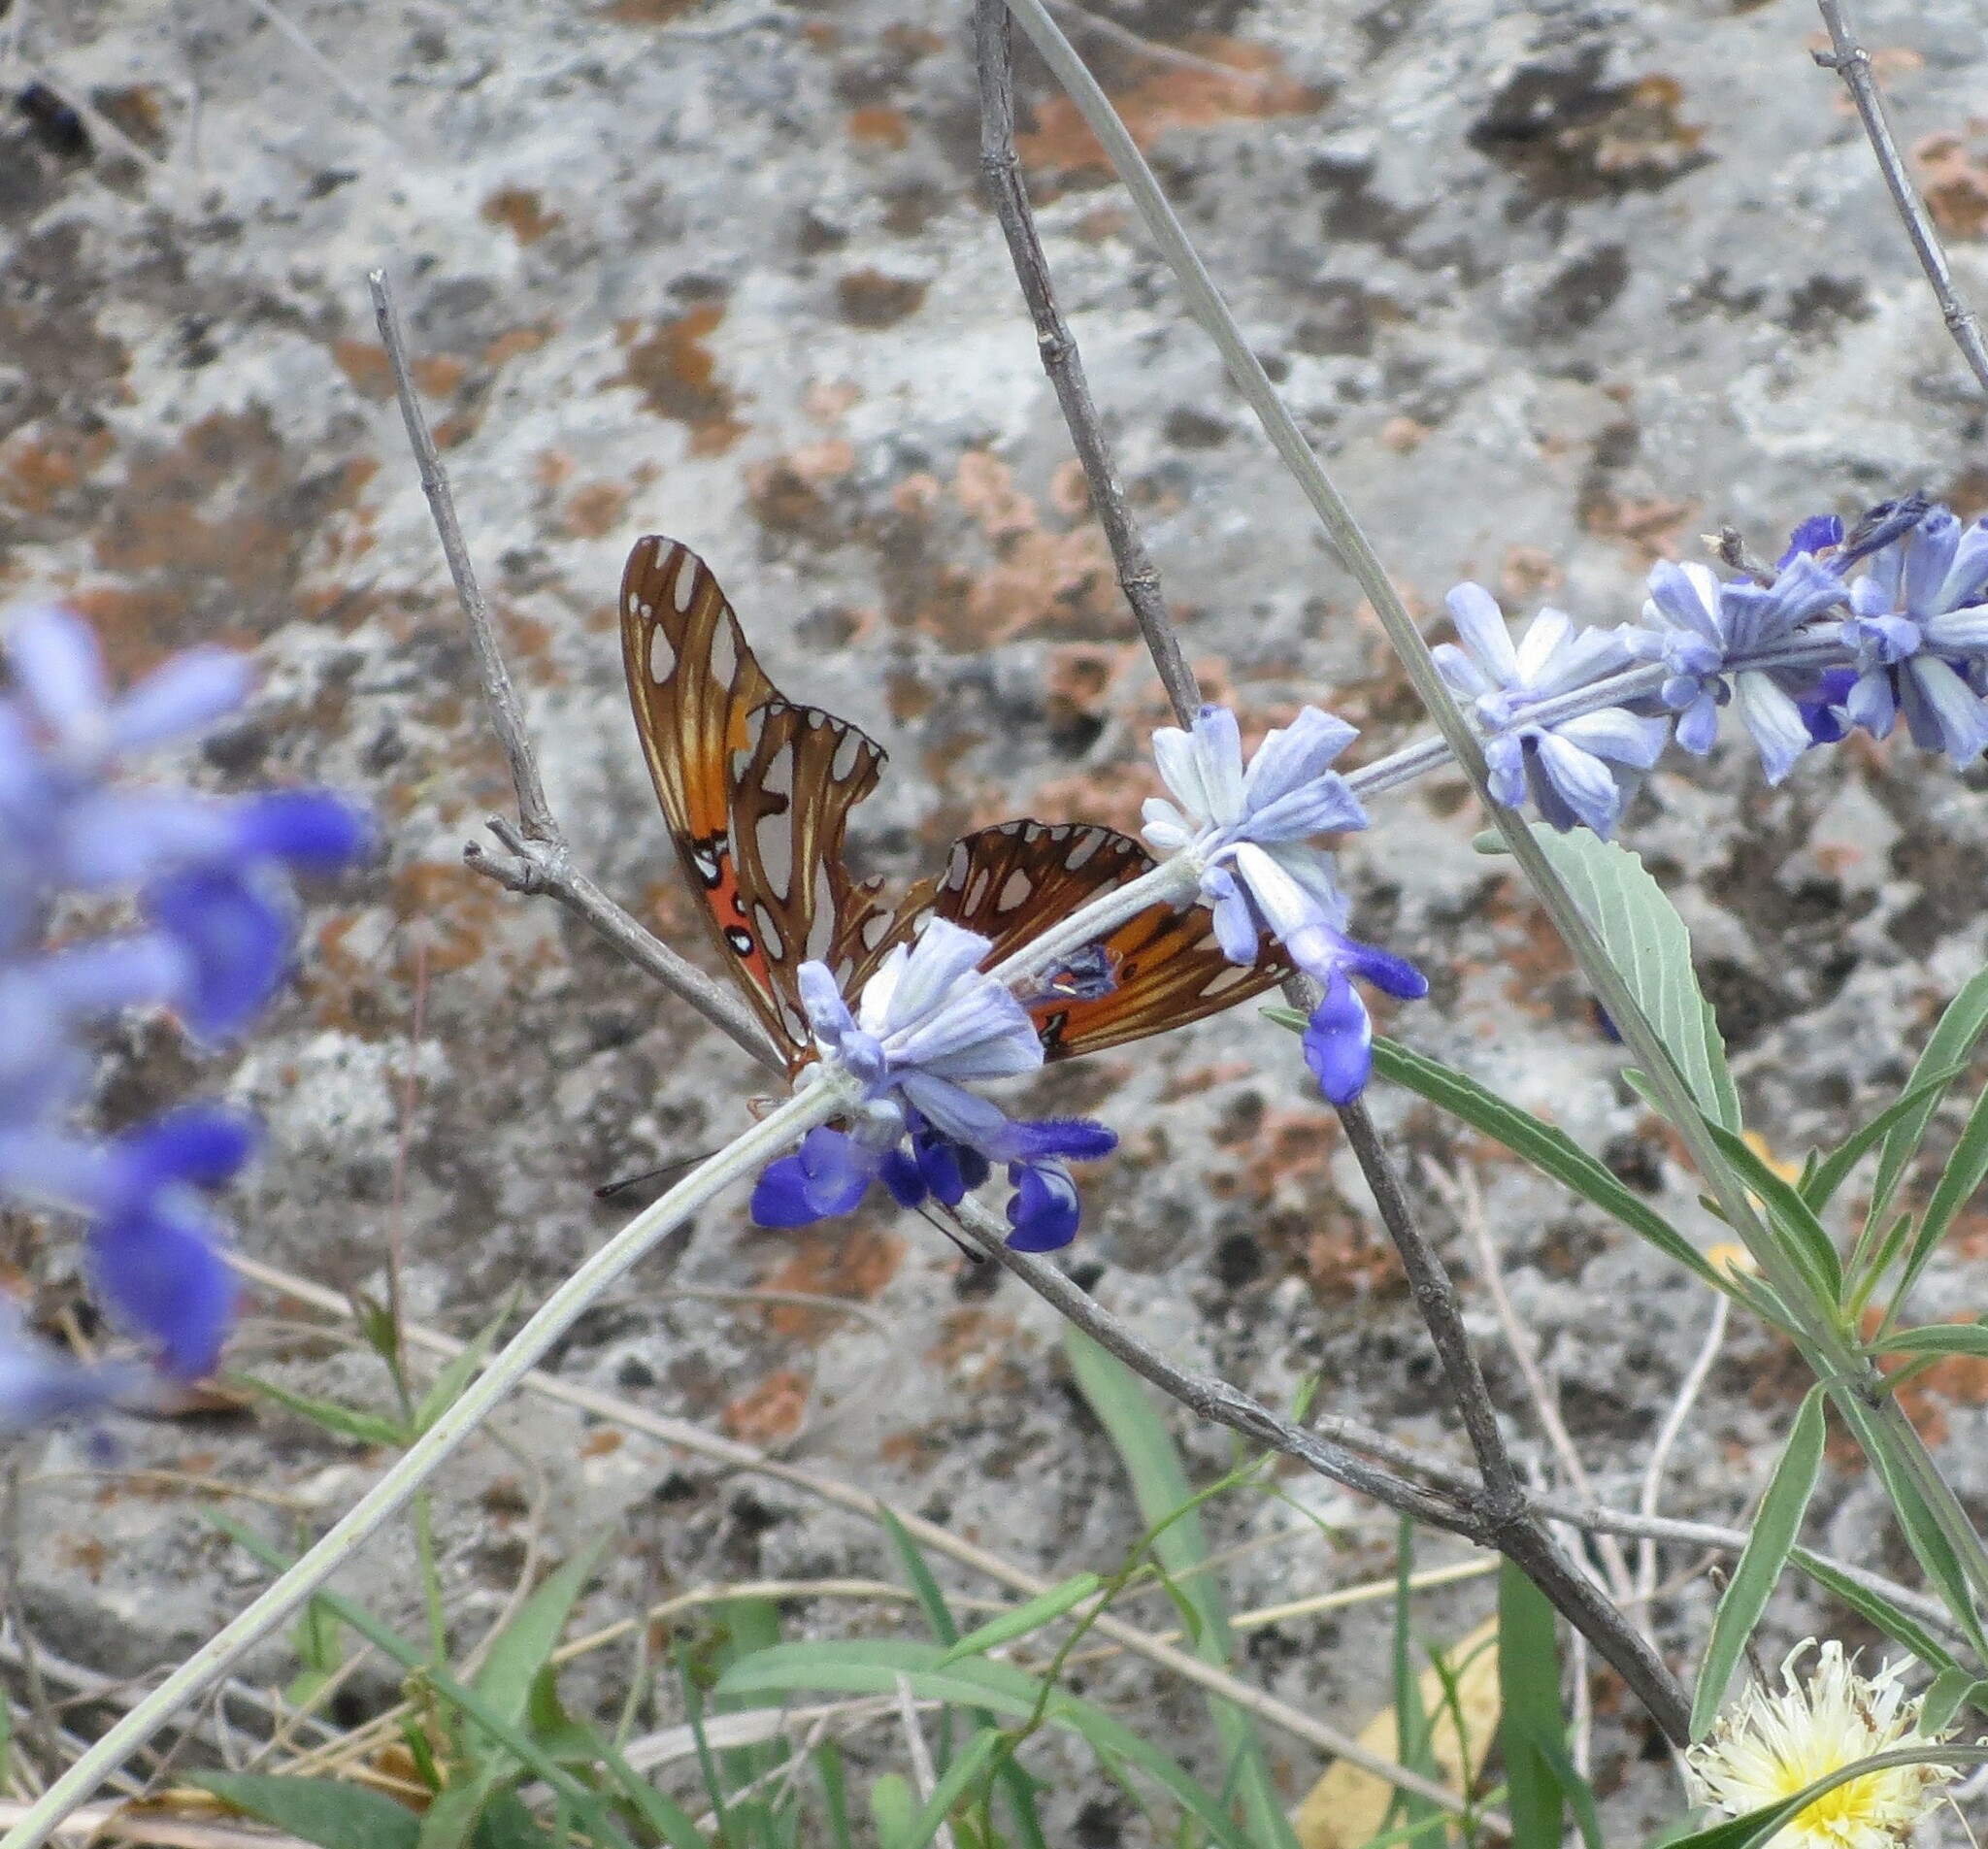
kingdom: Animalia
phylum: Arthropoda
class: Insecta
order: Lepidoptera
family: Nymphalidae
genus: Dione
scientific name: Dione vanillae
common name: Gulf fritillary
